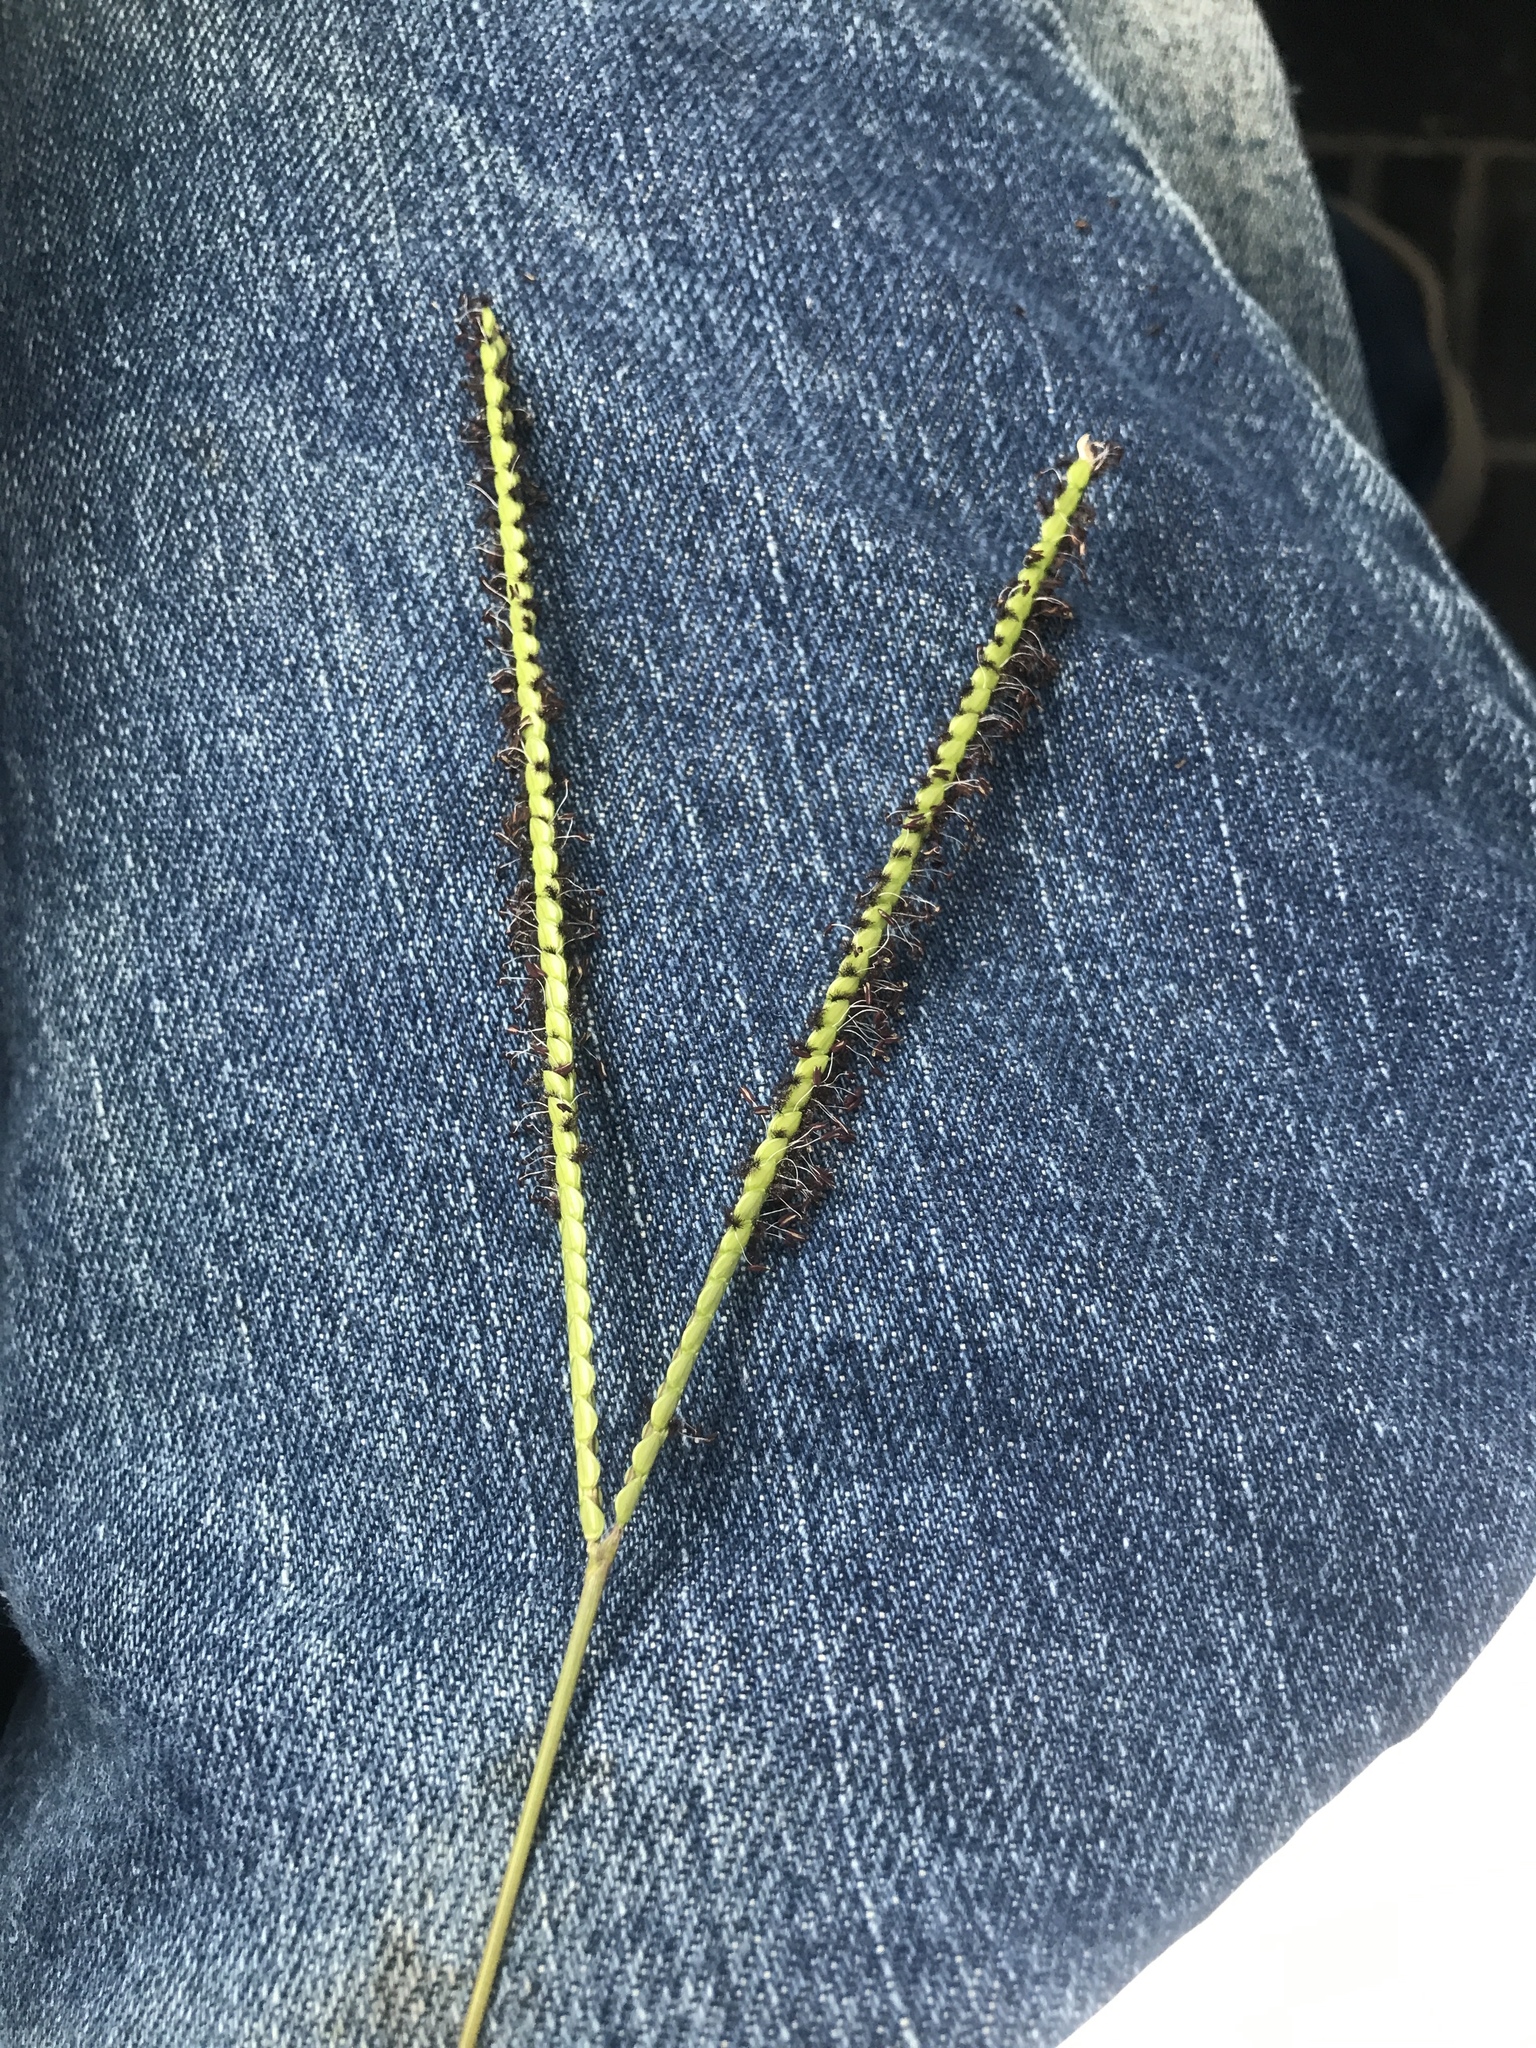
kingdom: Plantae
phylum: Tracheophyta
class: Liliopsida
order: Poales
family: Poaceae
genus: Paspalum
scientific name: Paspalum notatum
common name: Bahiagrass
